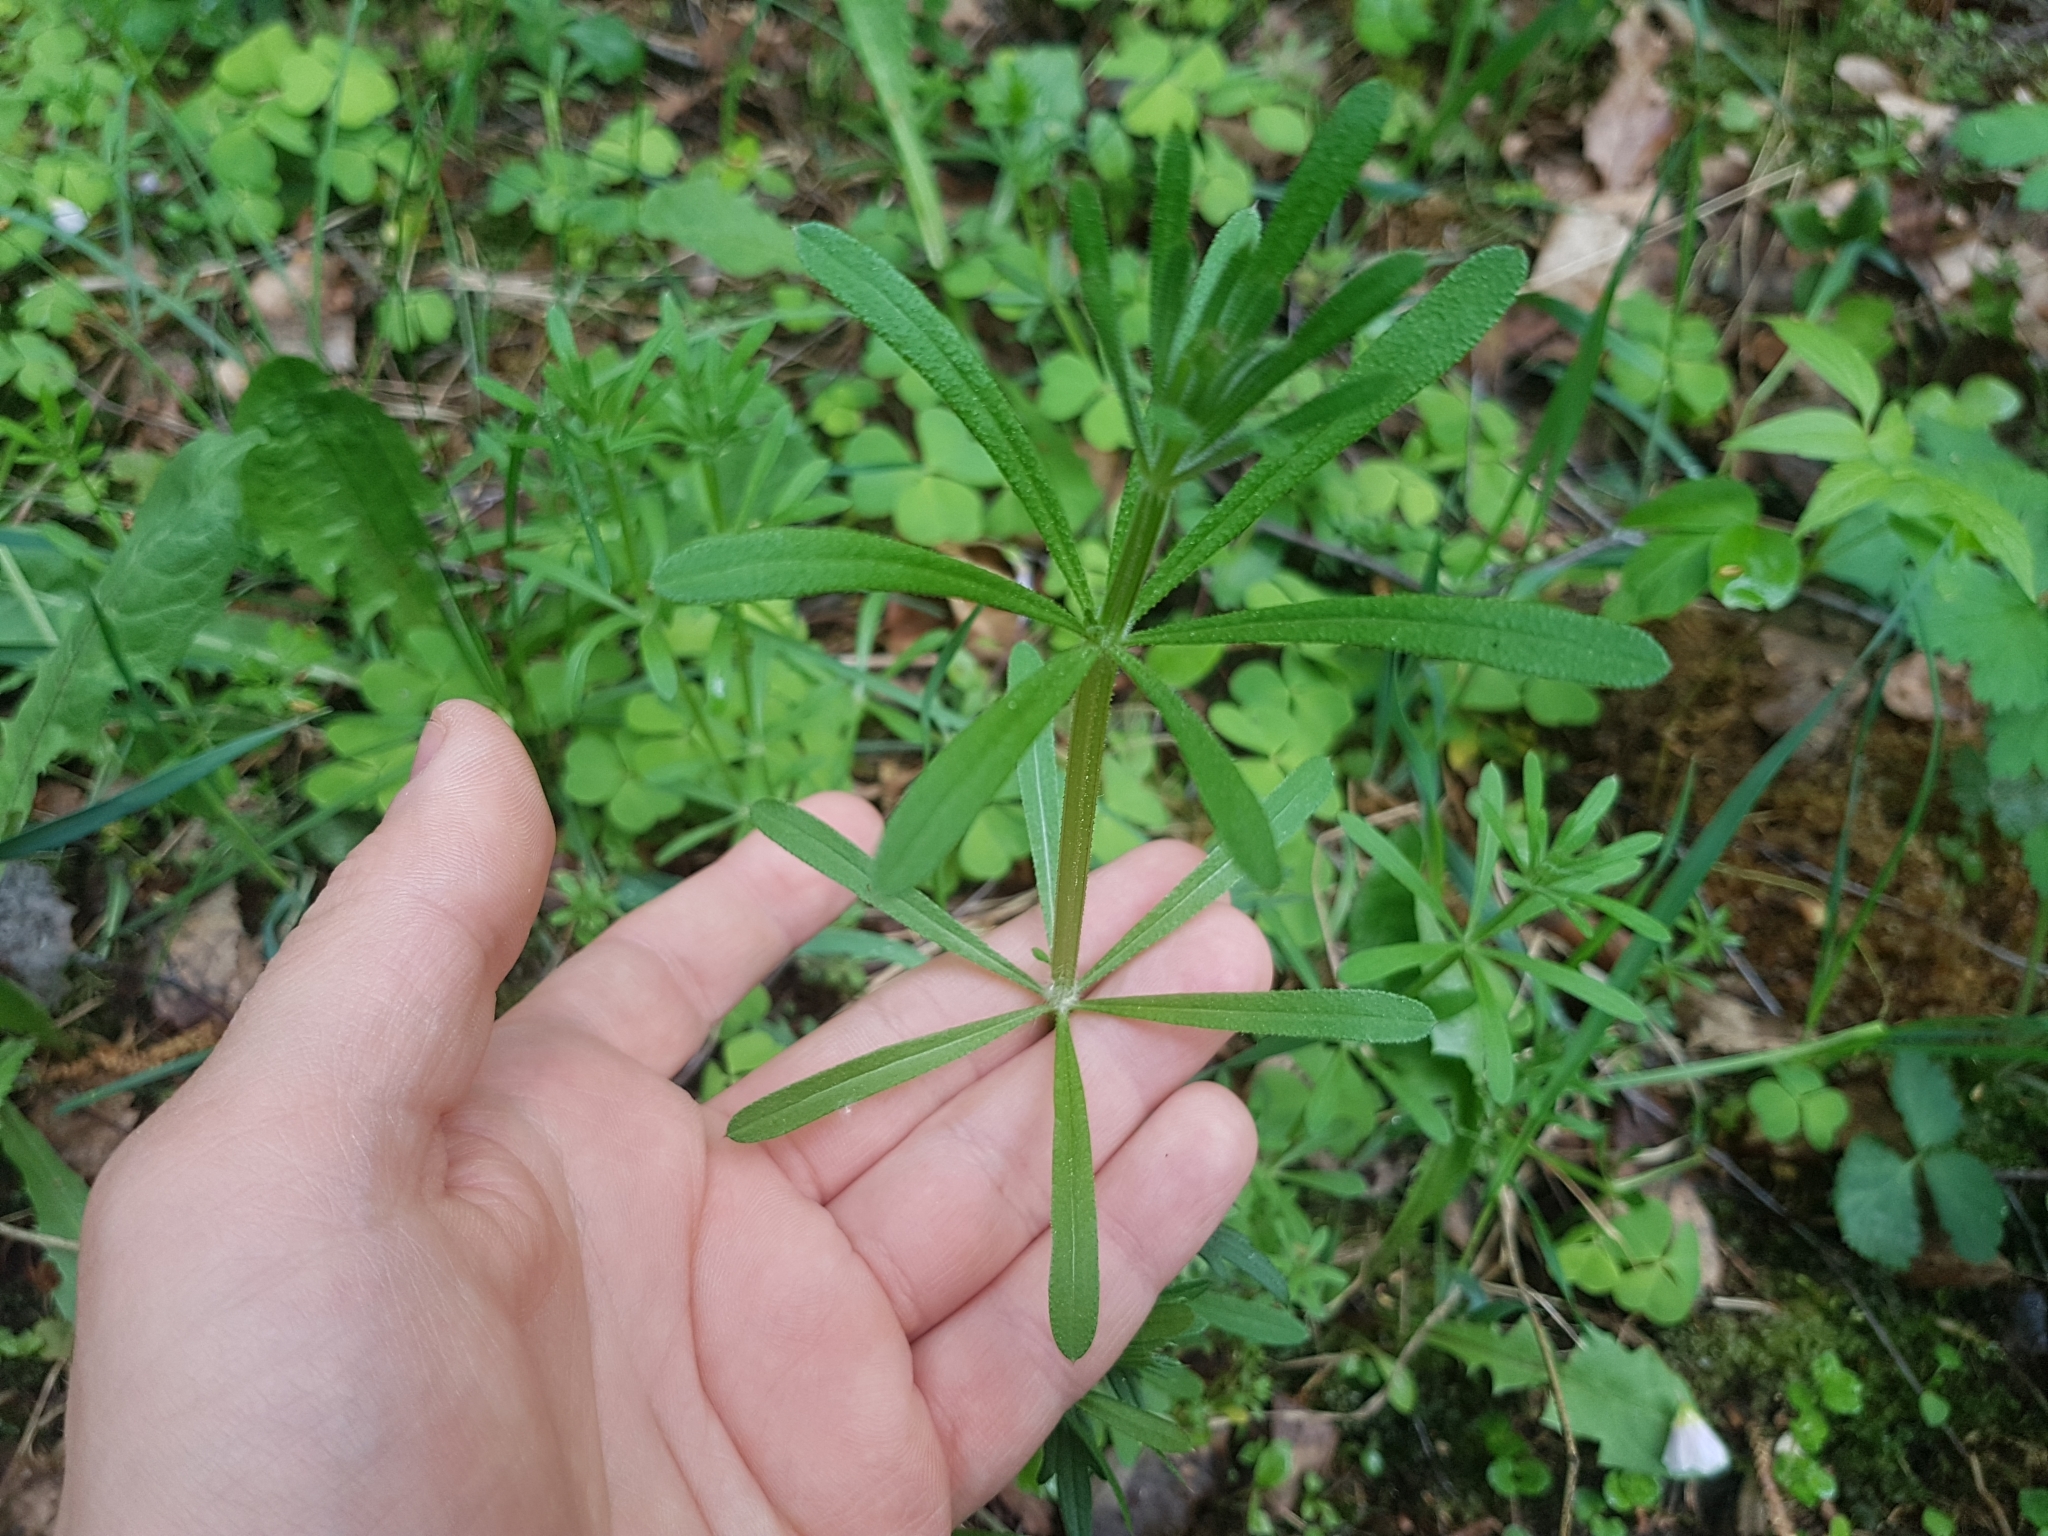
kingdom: Plantae
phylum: Tracheophyta
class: Magnoliopsida
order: Gentianales
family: Rubiaceae
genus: Galium
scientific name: Galium aparine
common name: Cleavers
